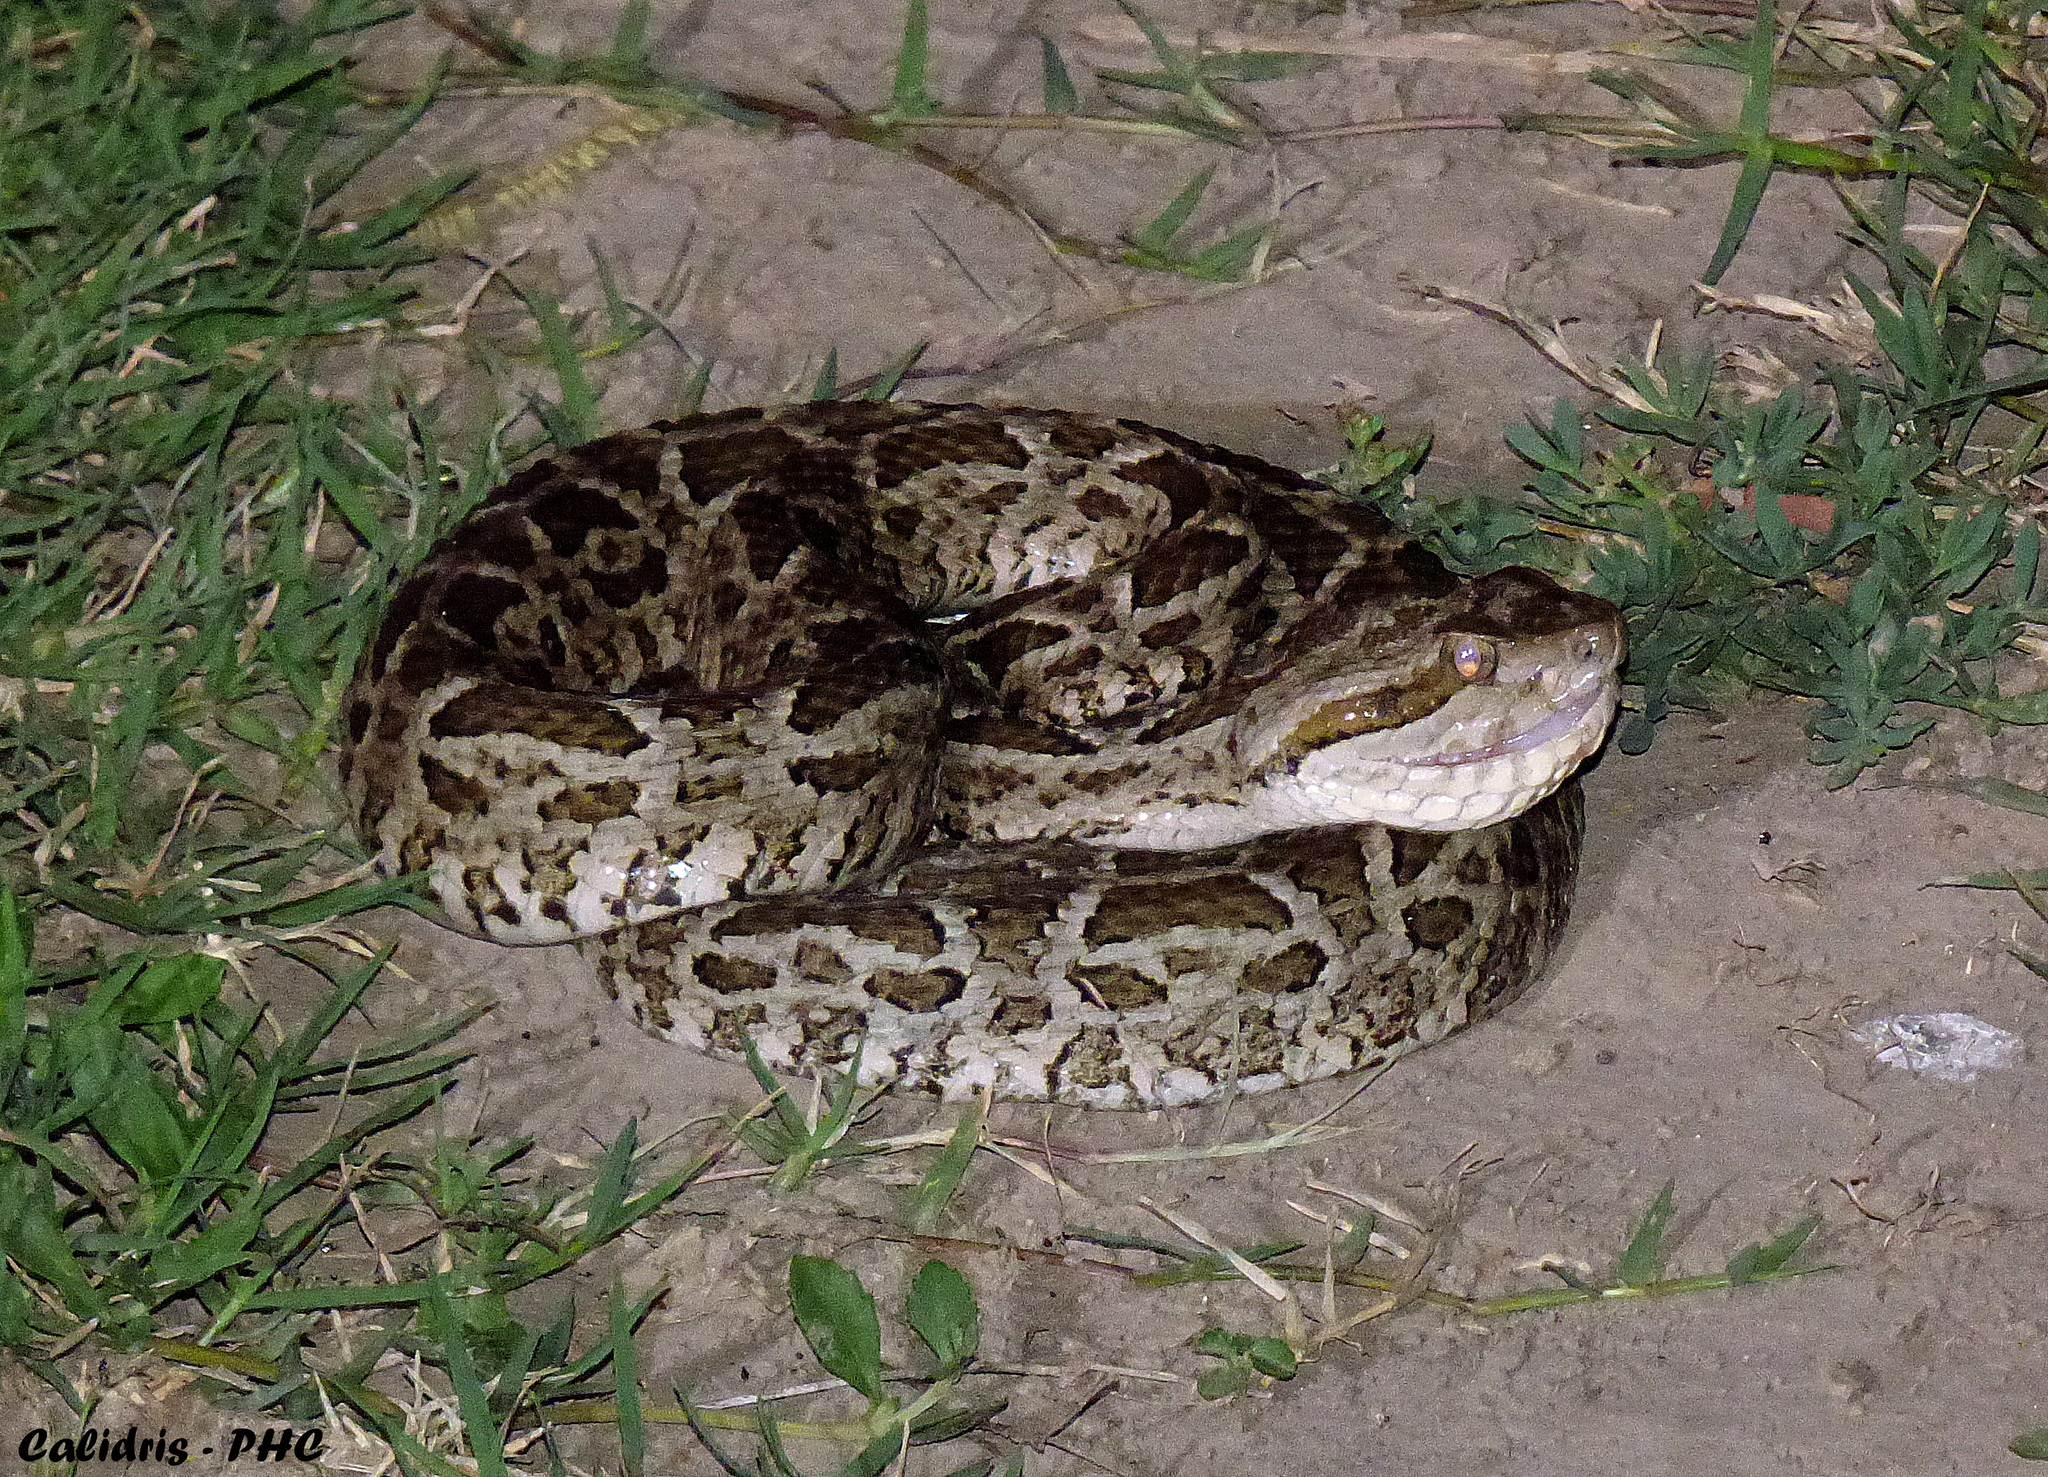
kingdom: Animalia
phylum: Chordata
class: Squamata
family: Viperidae
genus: Bothrops
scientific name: Bothrops diporus
